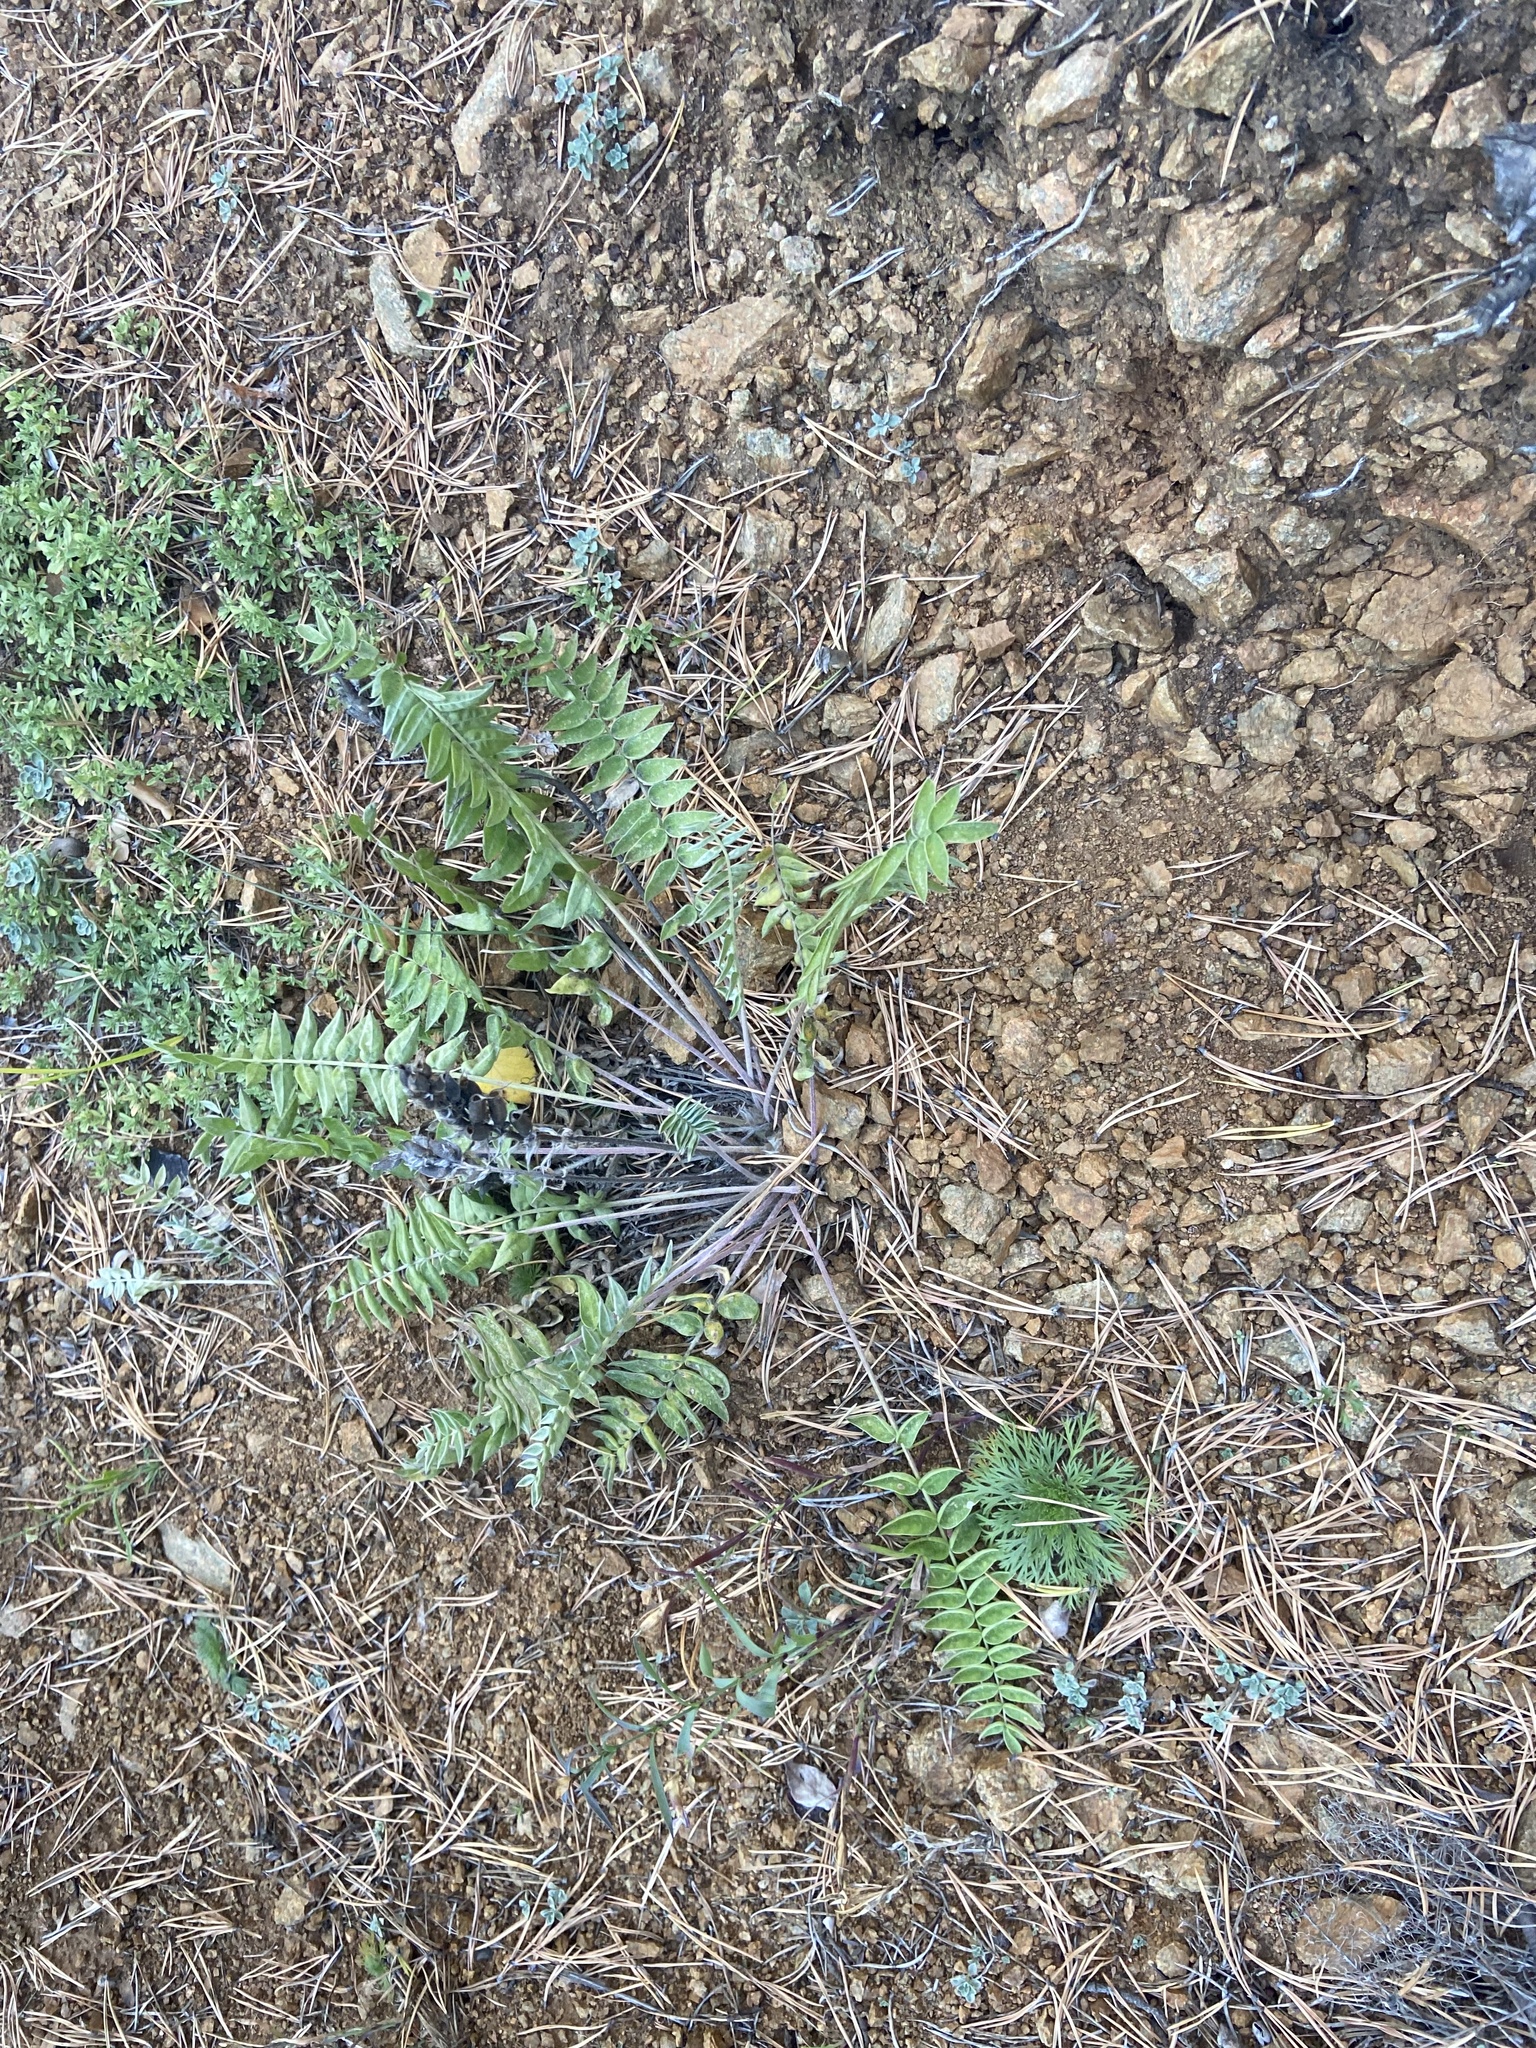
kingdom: Plantae
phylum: Tracheophyta
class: Magnoliopsida
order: Fabales
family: Fabaceae
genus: Oxytropis
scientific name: Oxytropis strobilacea
